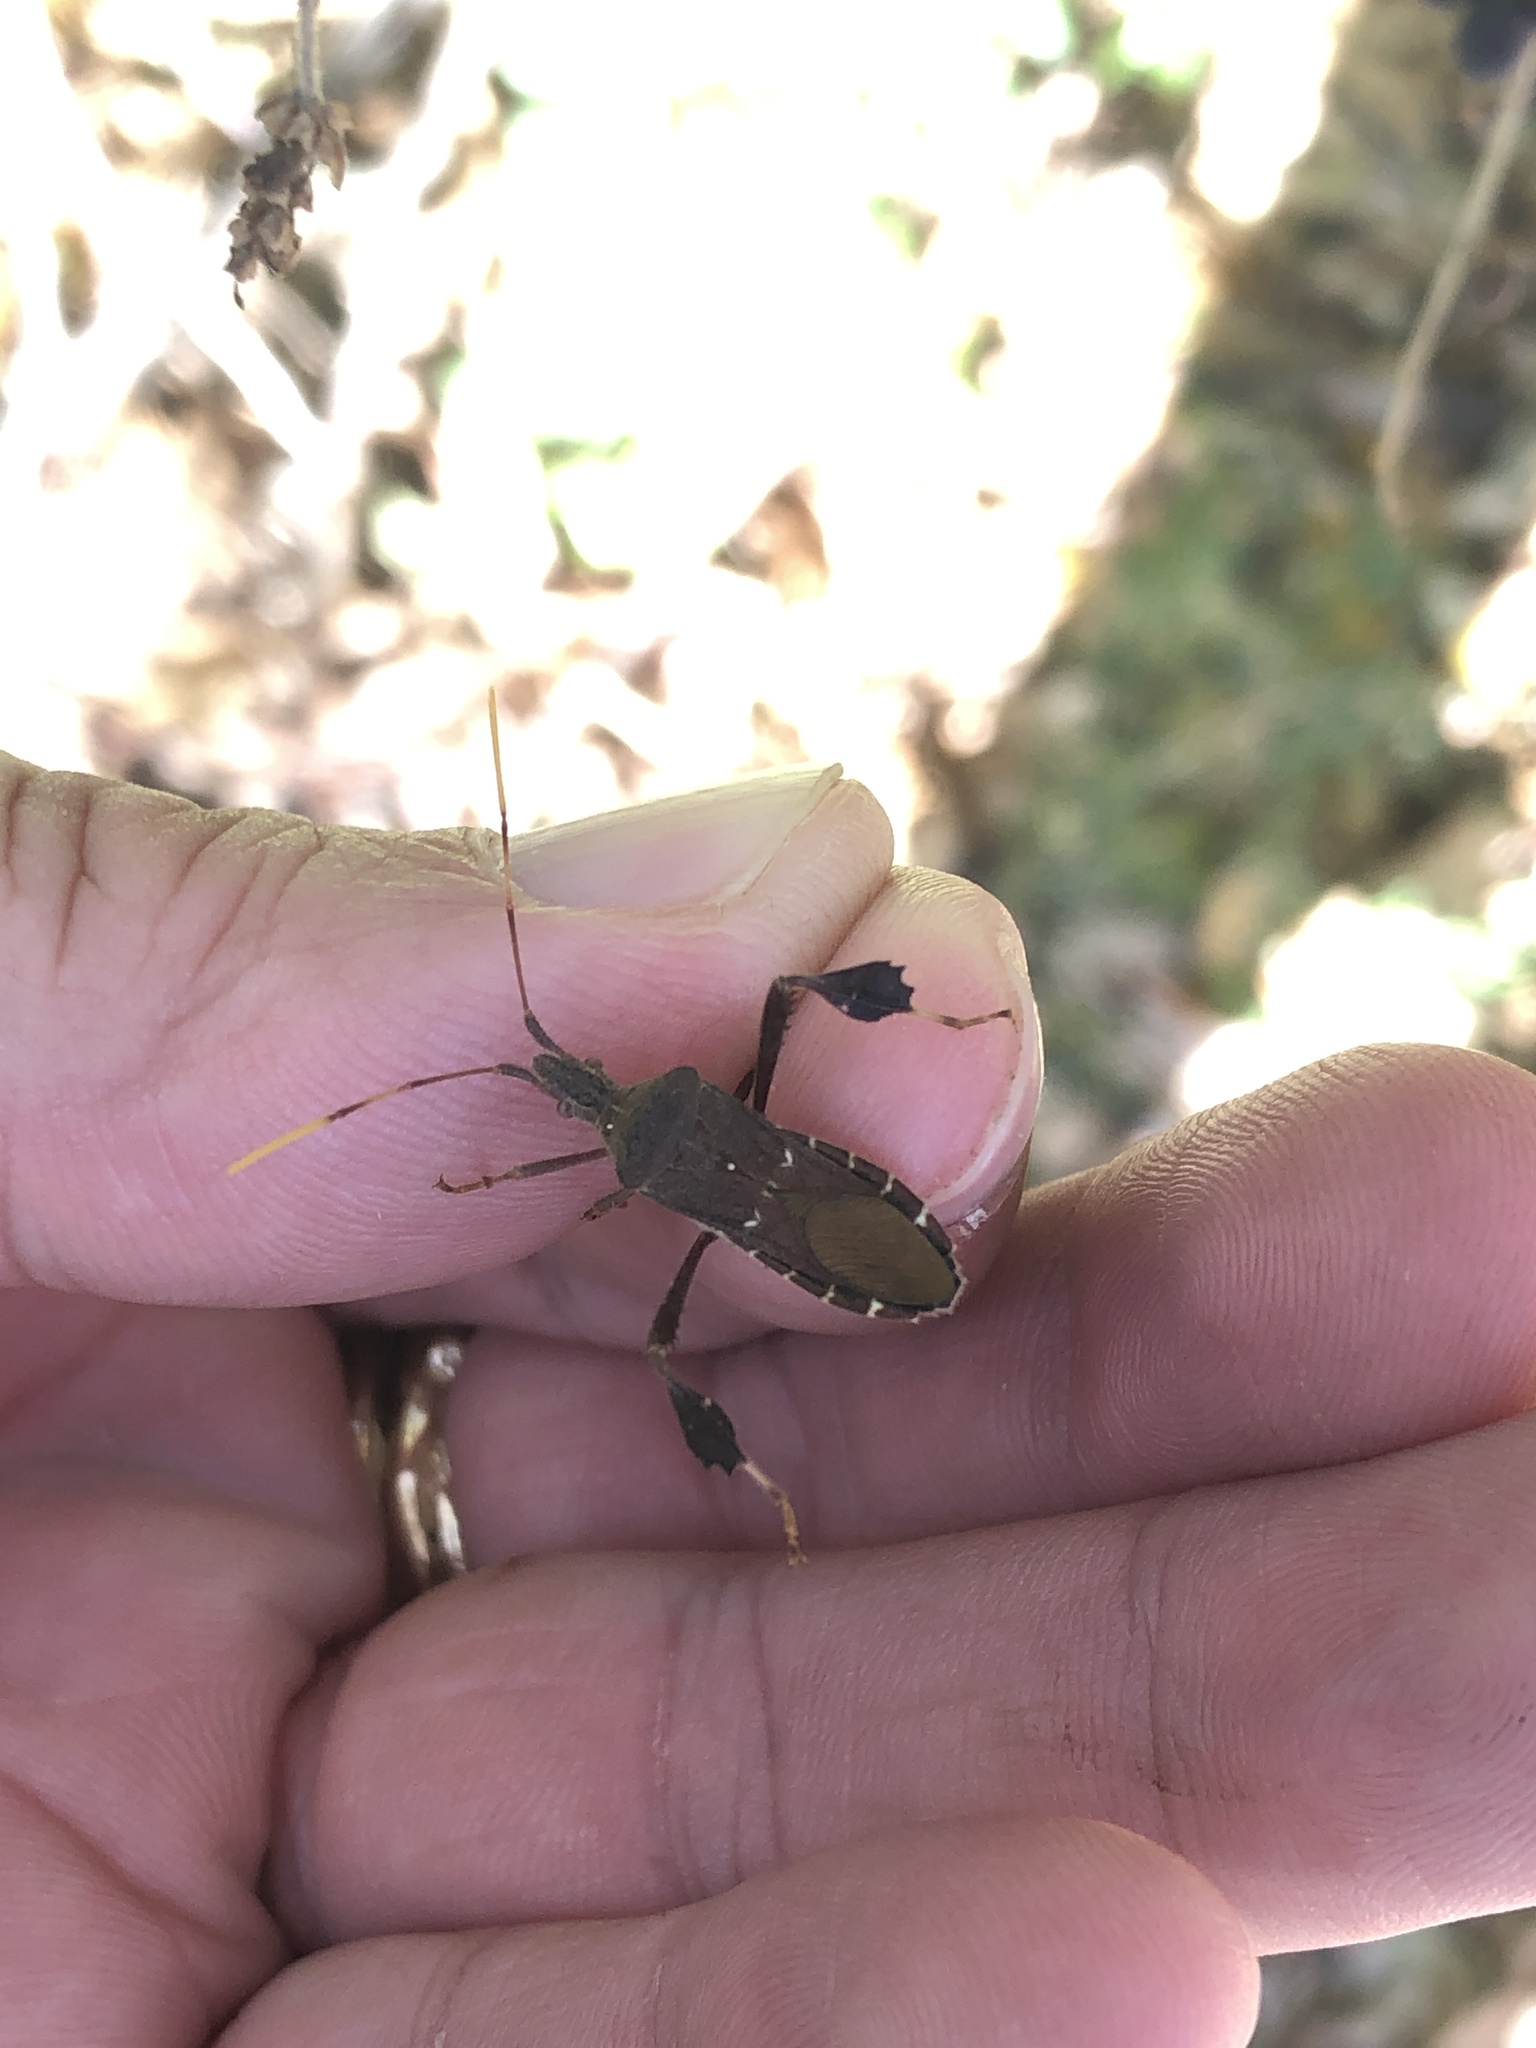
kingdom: Animalia
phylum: Arthropoda
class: Insecta
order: Hemiptera
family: Coreidae
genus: Leptoglossus
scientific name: Leptoglossus oppositus
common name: Northern leaf-footed bug
